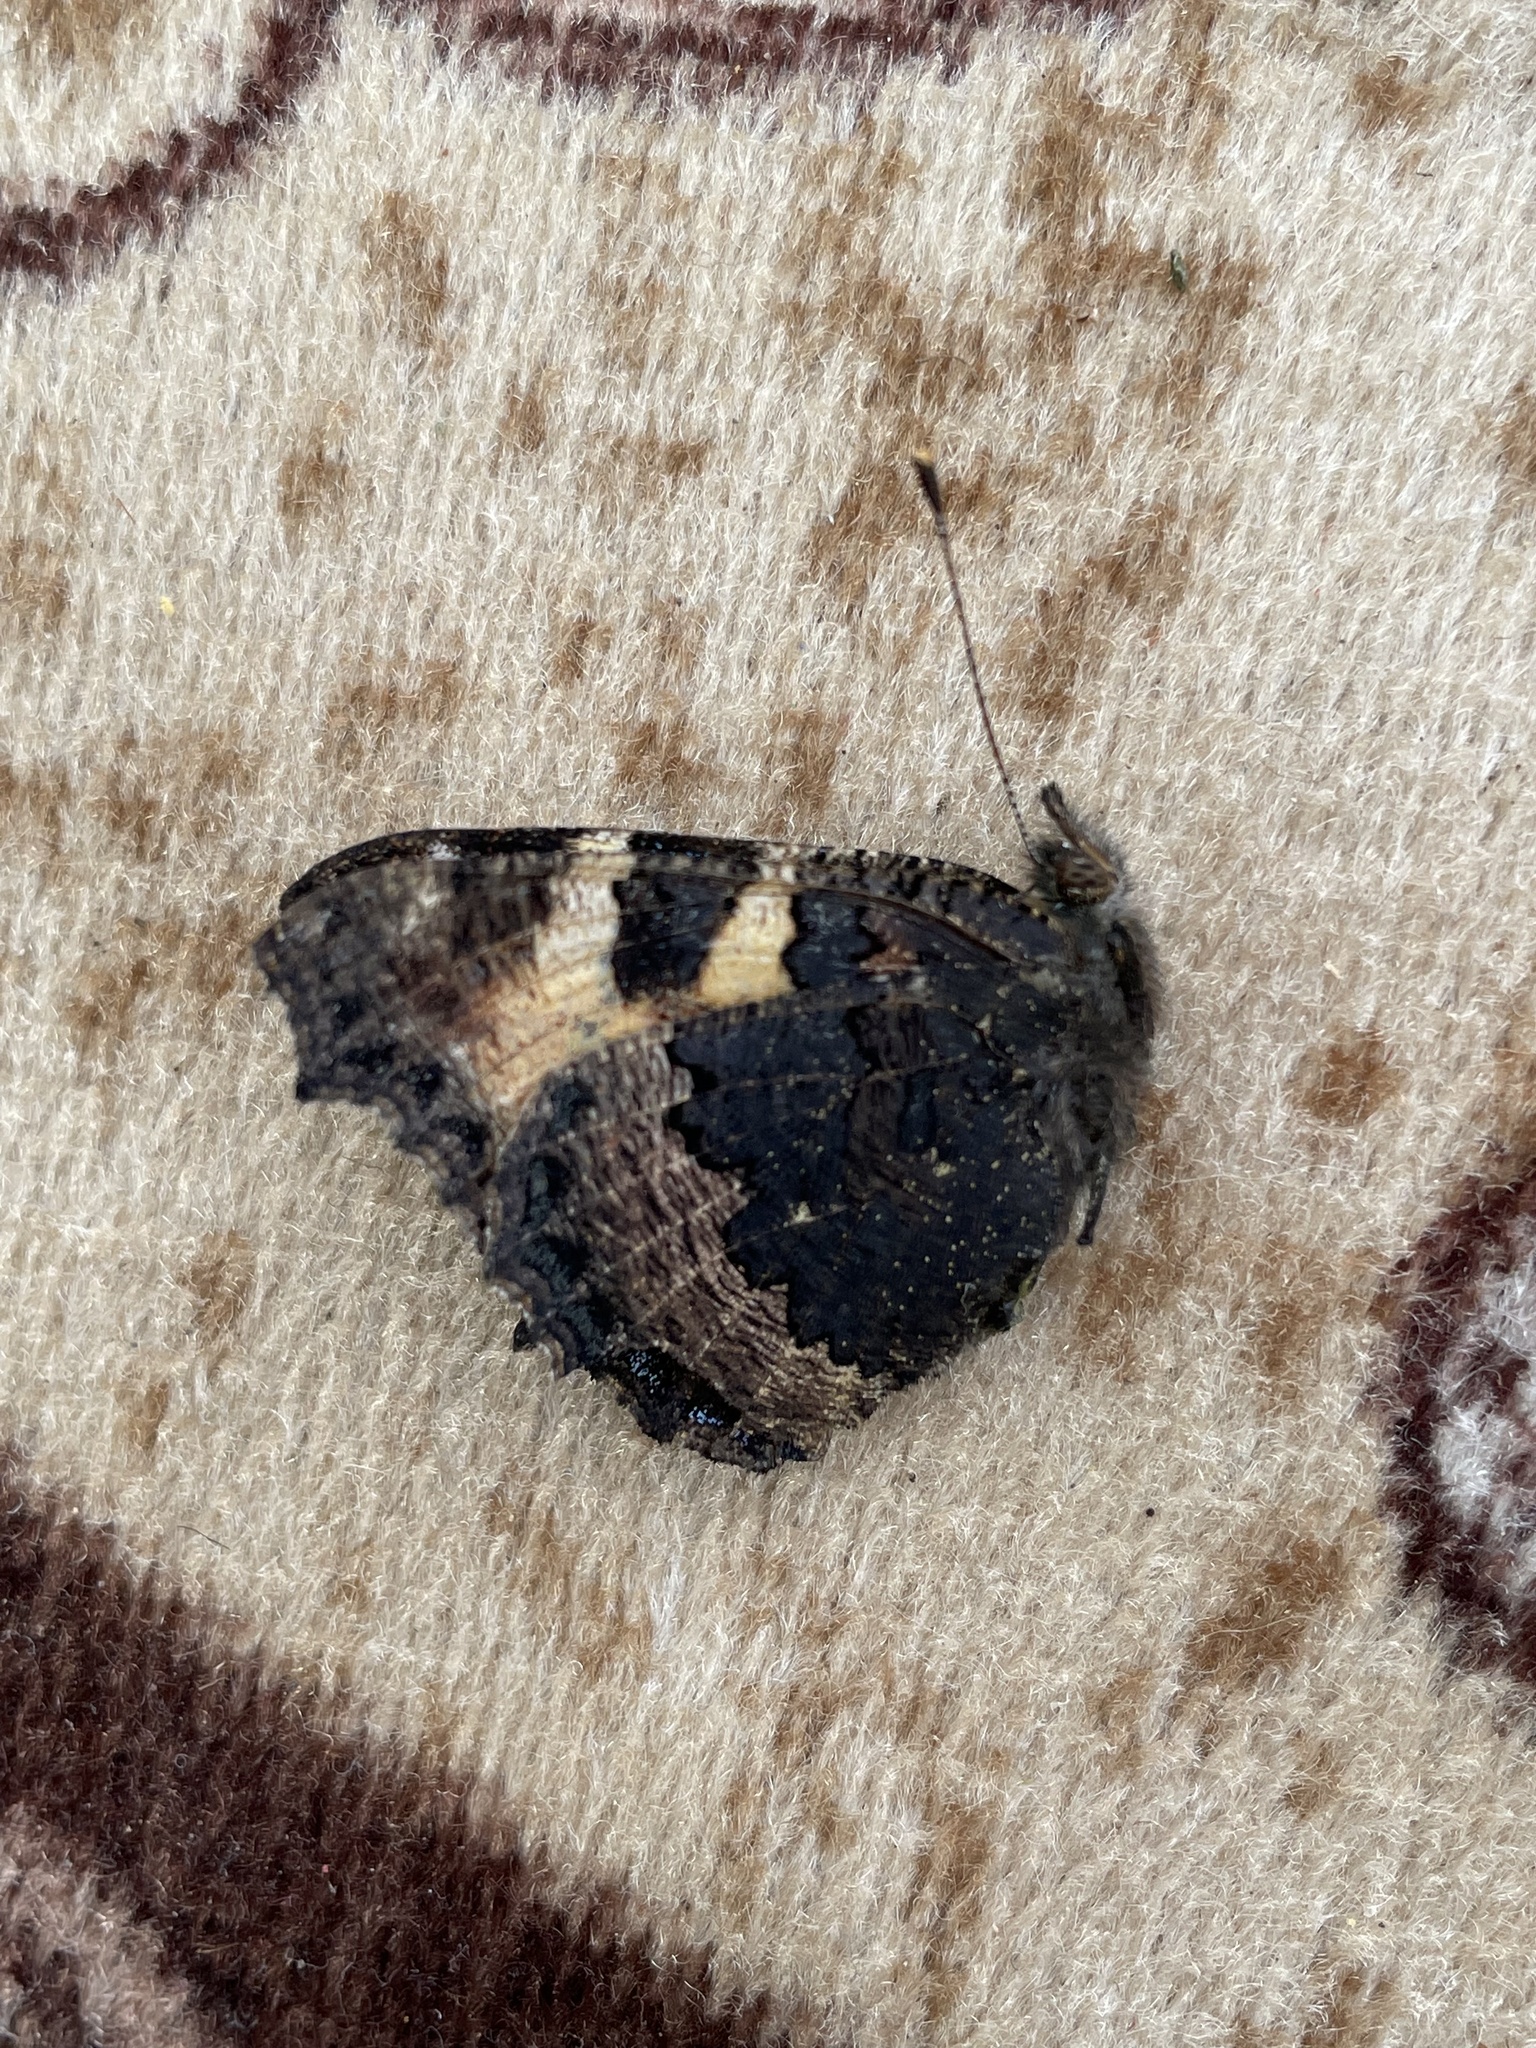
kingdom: Animalia
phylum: Arthropoda
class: Insecta
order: Lepidoptera
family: Nymphalidae
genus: Aglais
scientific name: Aglais urticae
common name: Small tortoiseshell
